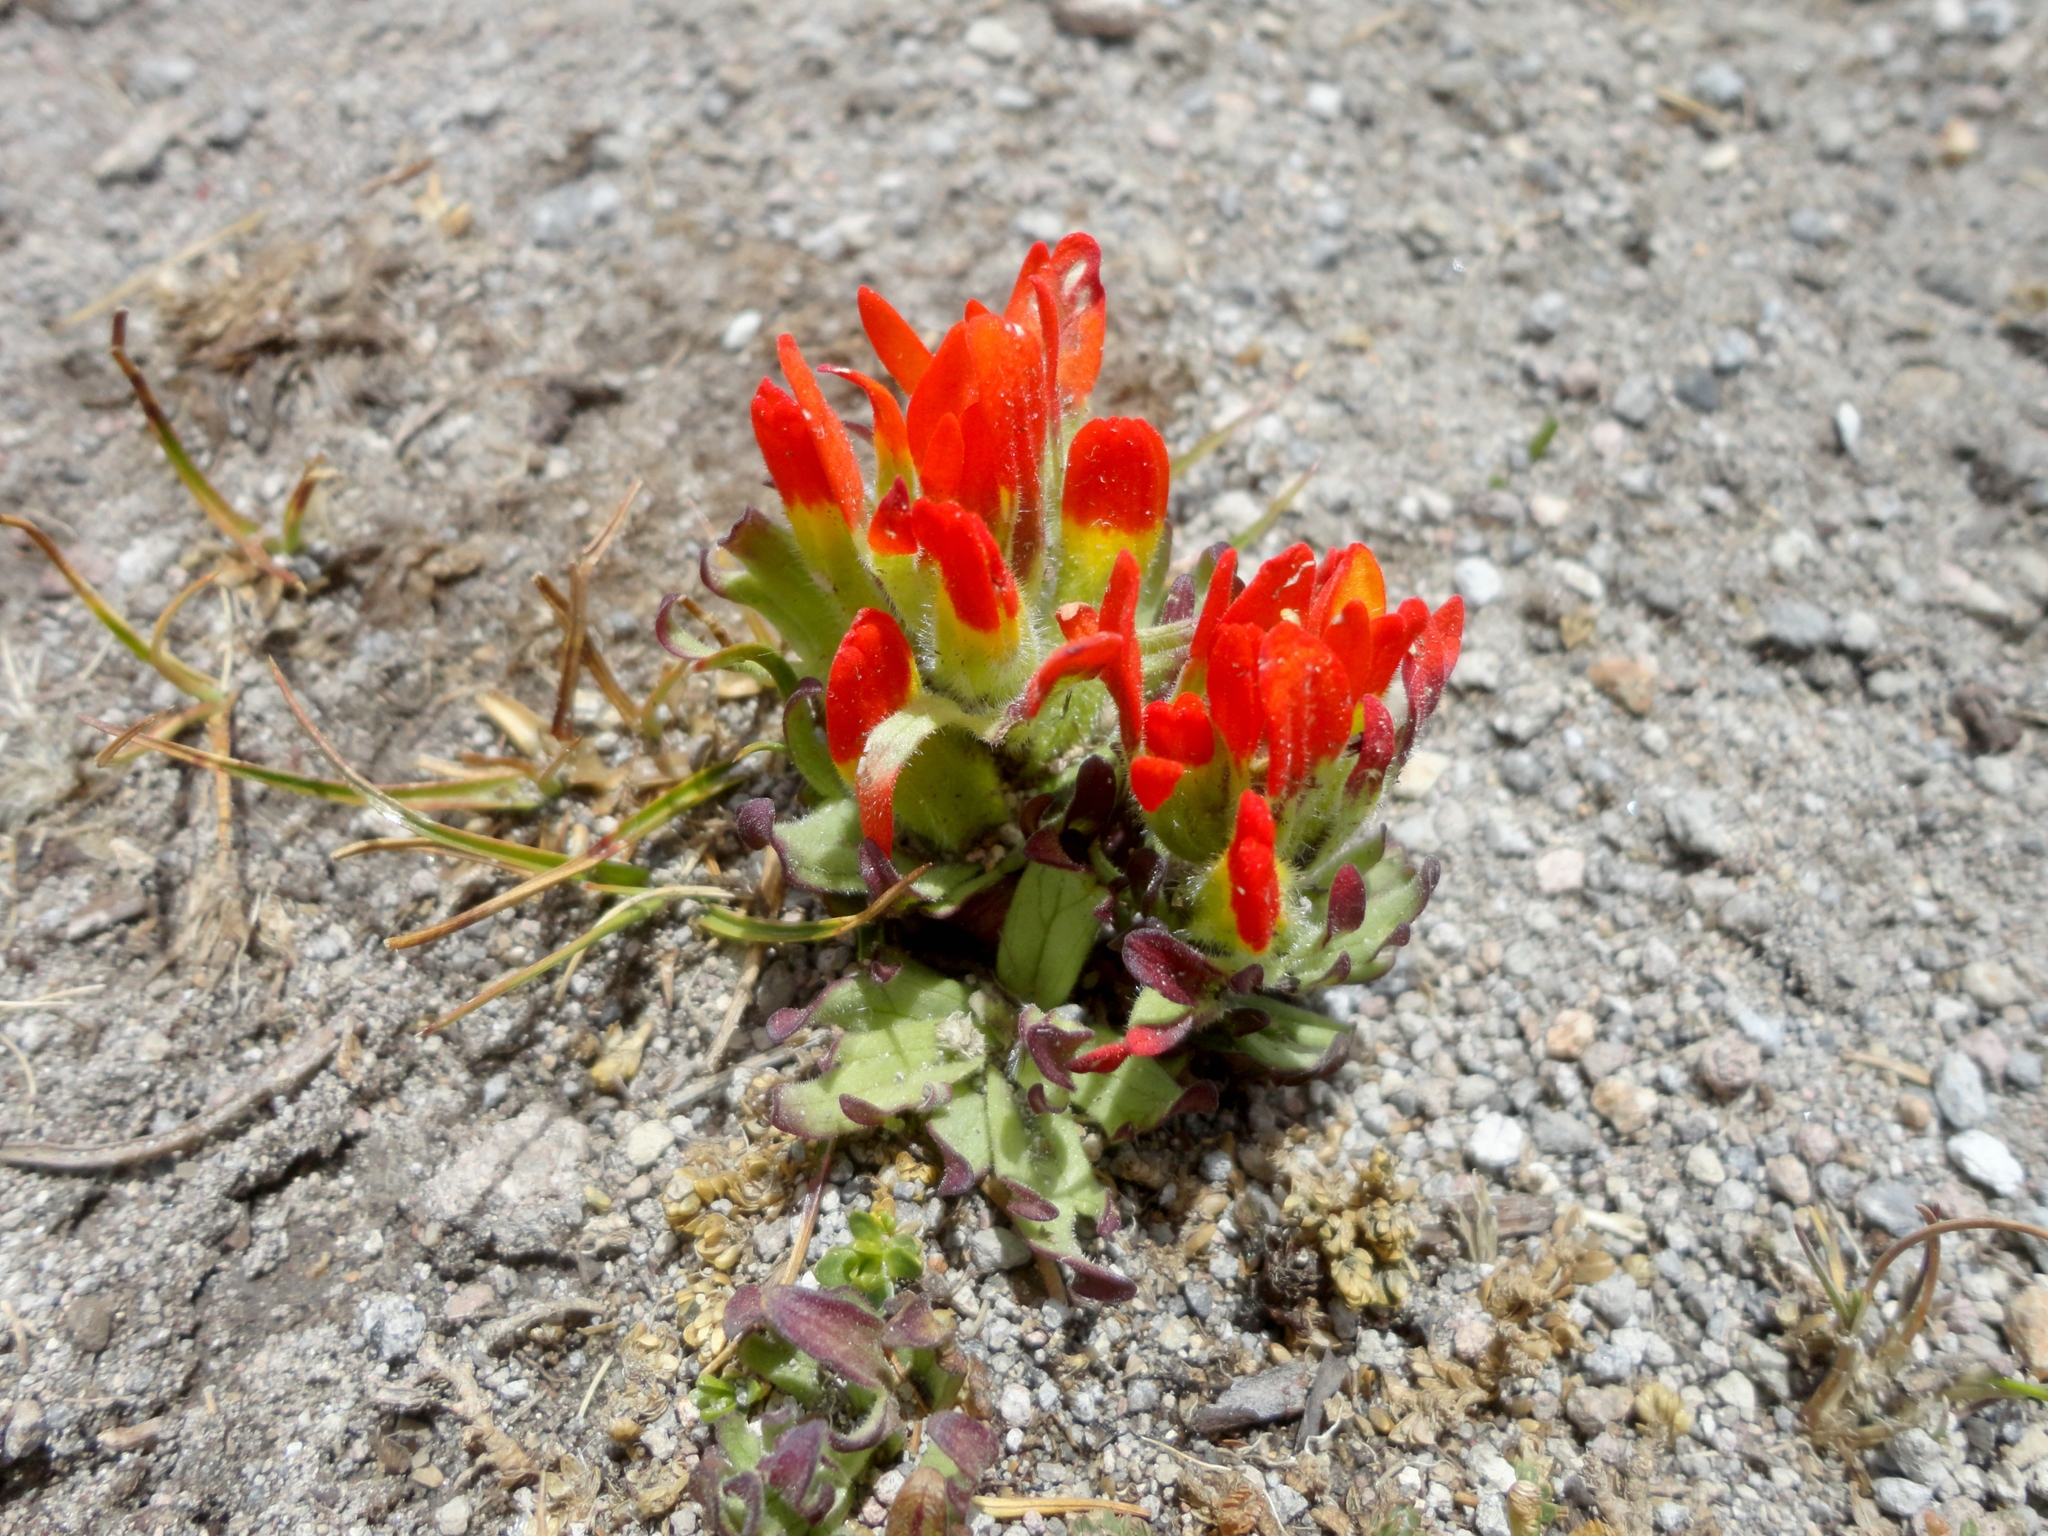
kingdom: Plantae
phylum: Tracheophyta
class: Magnoliopsida
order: Lamiales
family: Orobanchaceae
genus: Castilleja
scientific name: Castilleja tolucensis
